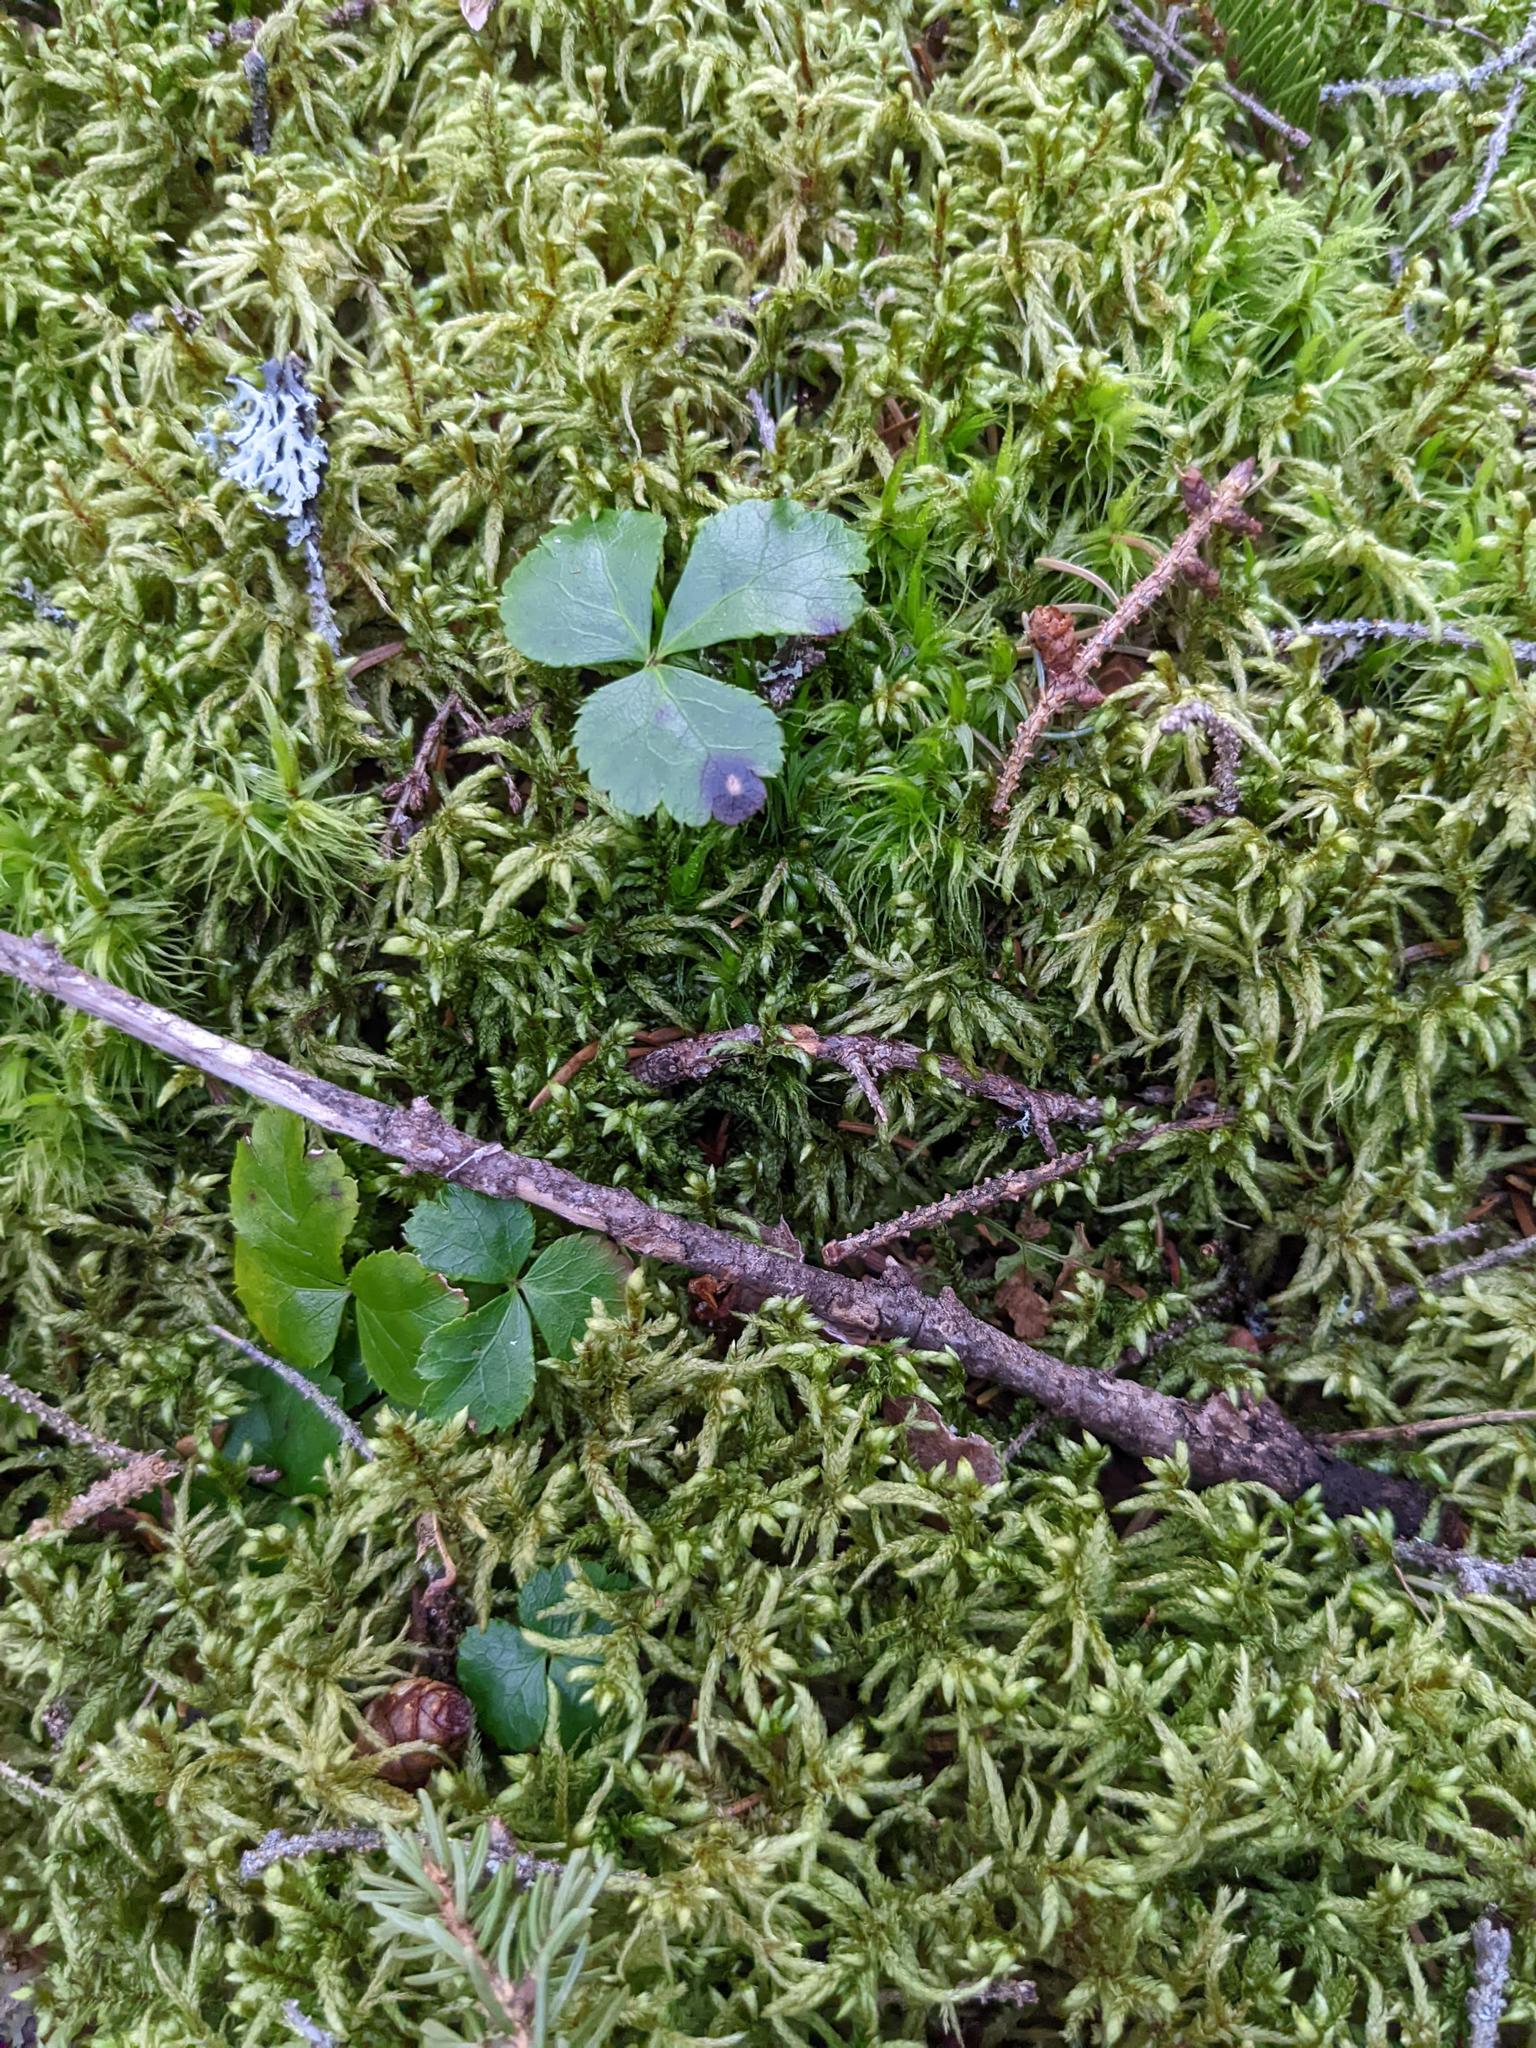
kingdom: Plantae
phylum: Tracheophyta
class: Magnoliopsida
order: Ranunculales
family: Ranunculaceae
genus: Coptis
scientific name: Coptis trifolia
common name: Canker-root
